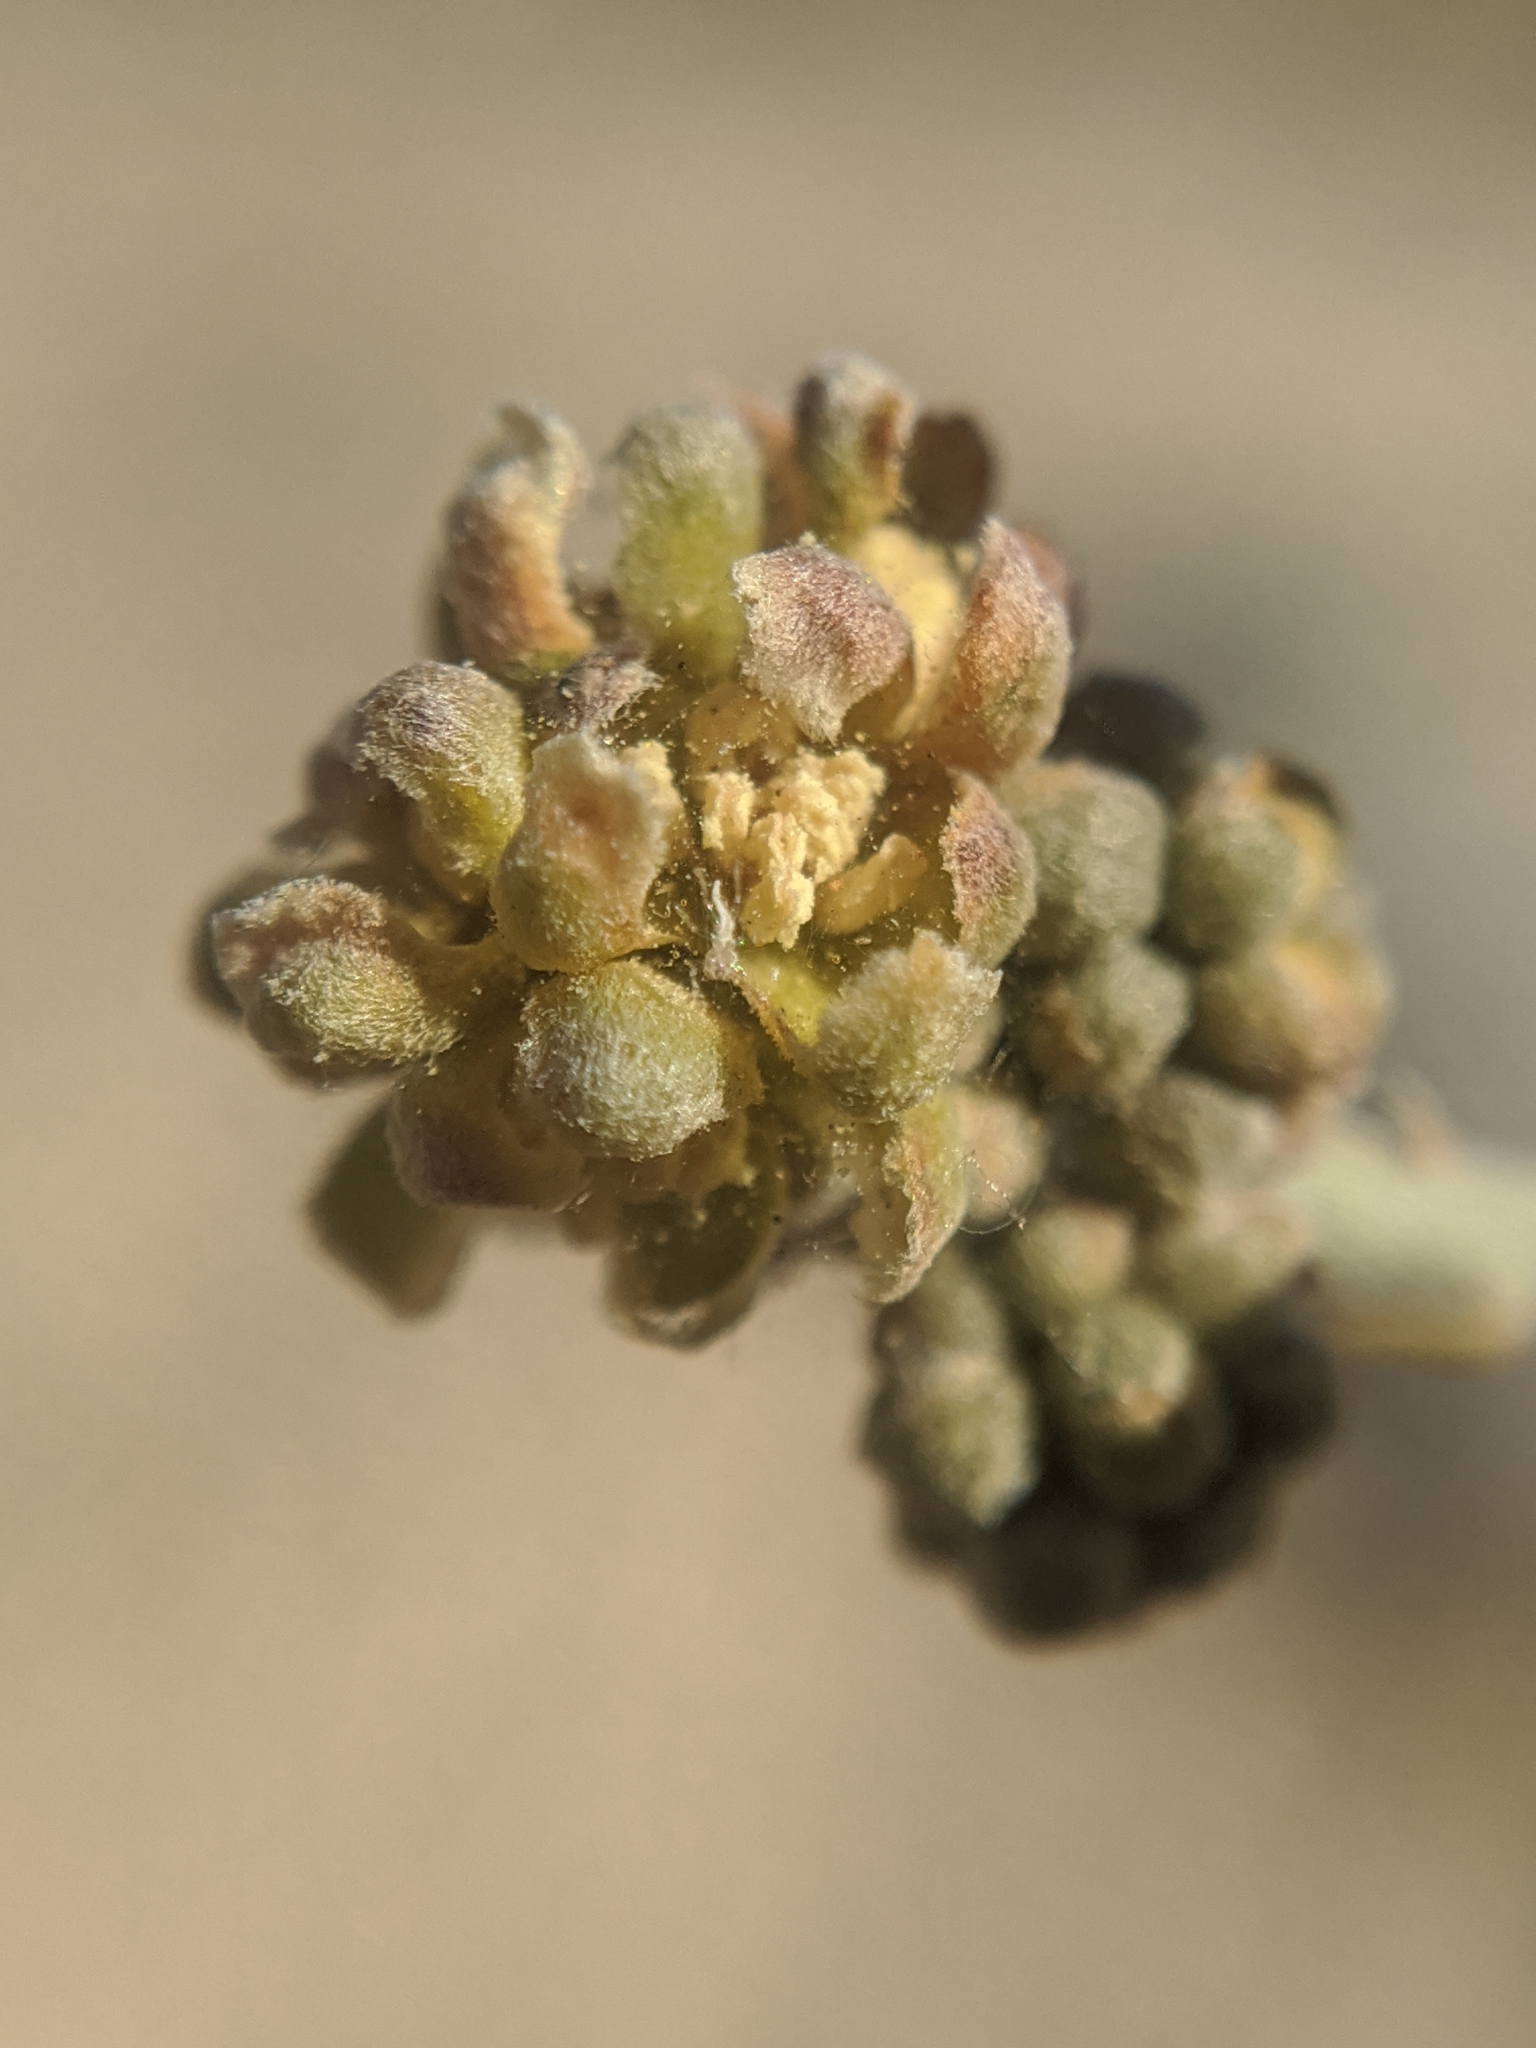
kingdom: Plantae
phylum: Tracheophyta
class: Magnoliopsida
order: Caryophyllales
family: Simmondsiaceae
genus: Simmondsia
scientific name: Simmondsia chinensis
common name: Jojoba
